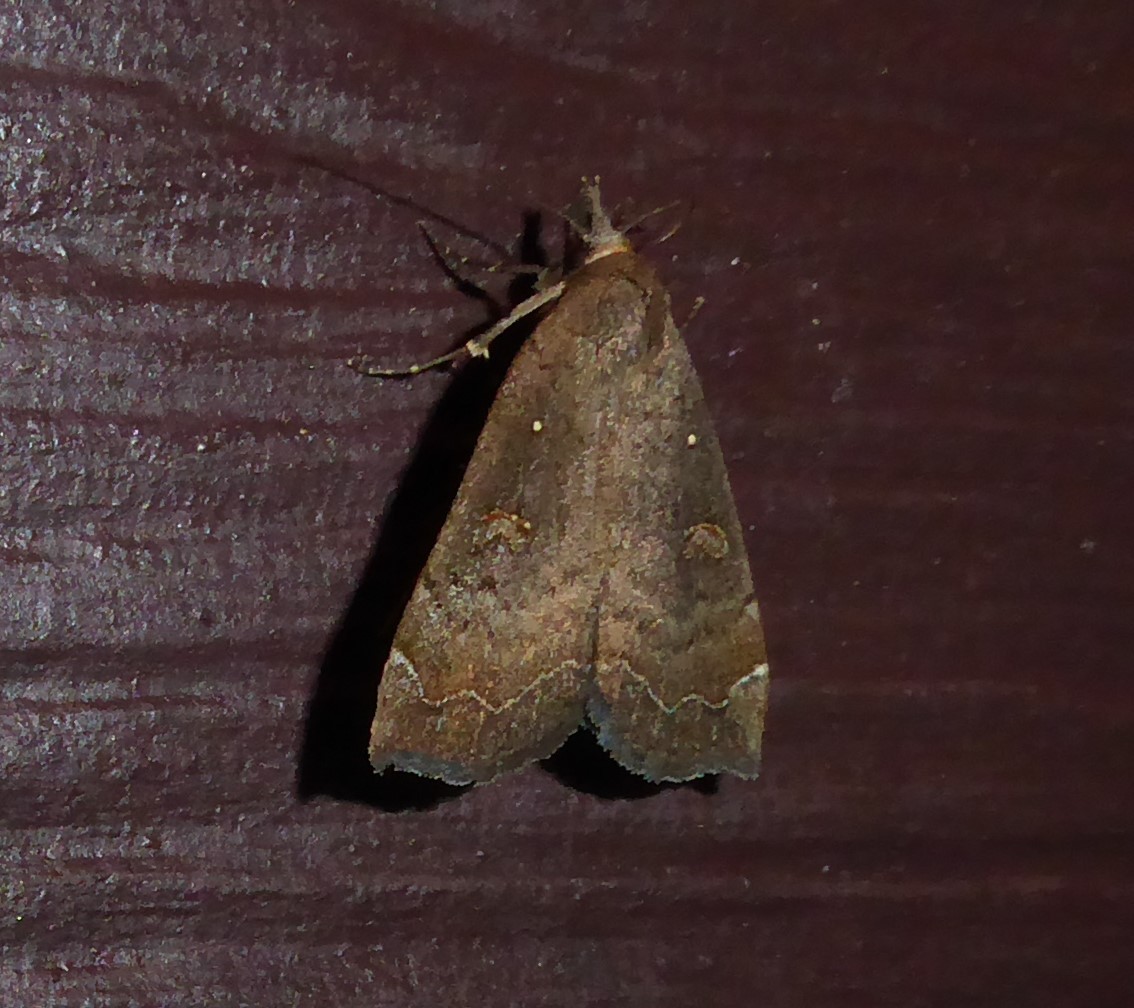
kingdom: Animalia
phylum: Arthropoda
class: Insecta
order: Lepidoptera
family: Erebidae
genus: Rhapsa
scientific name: Rhapsa scotosialis
